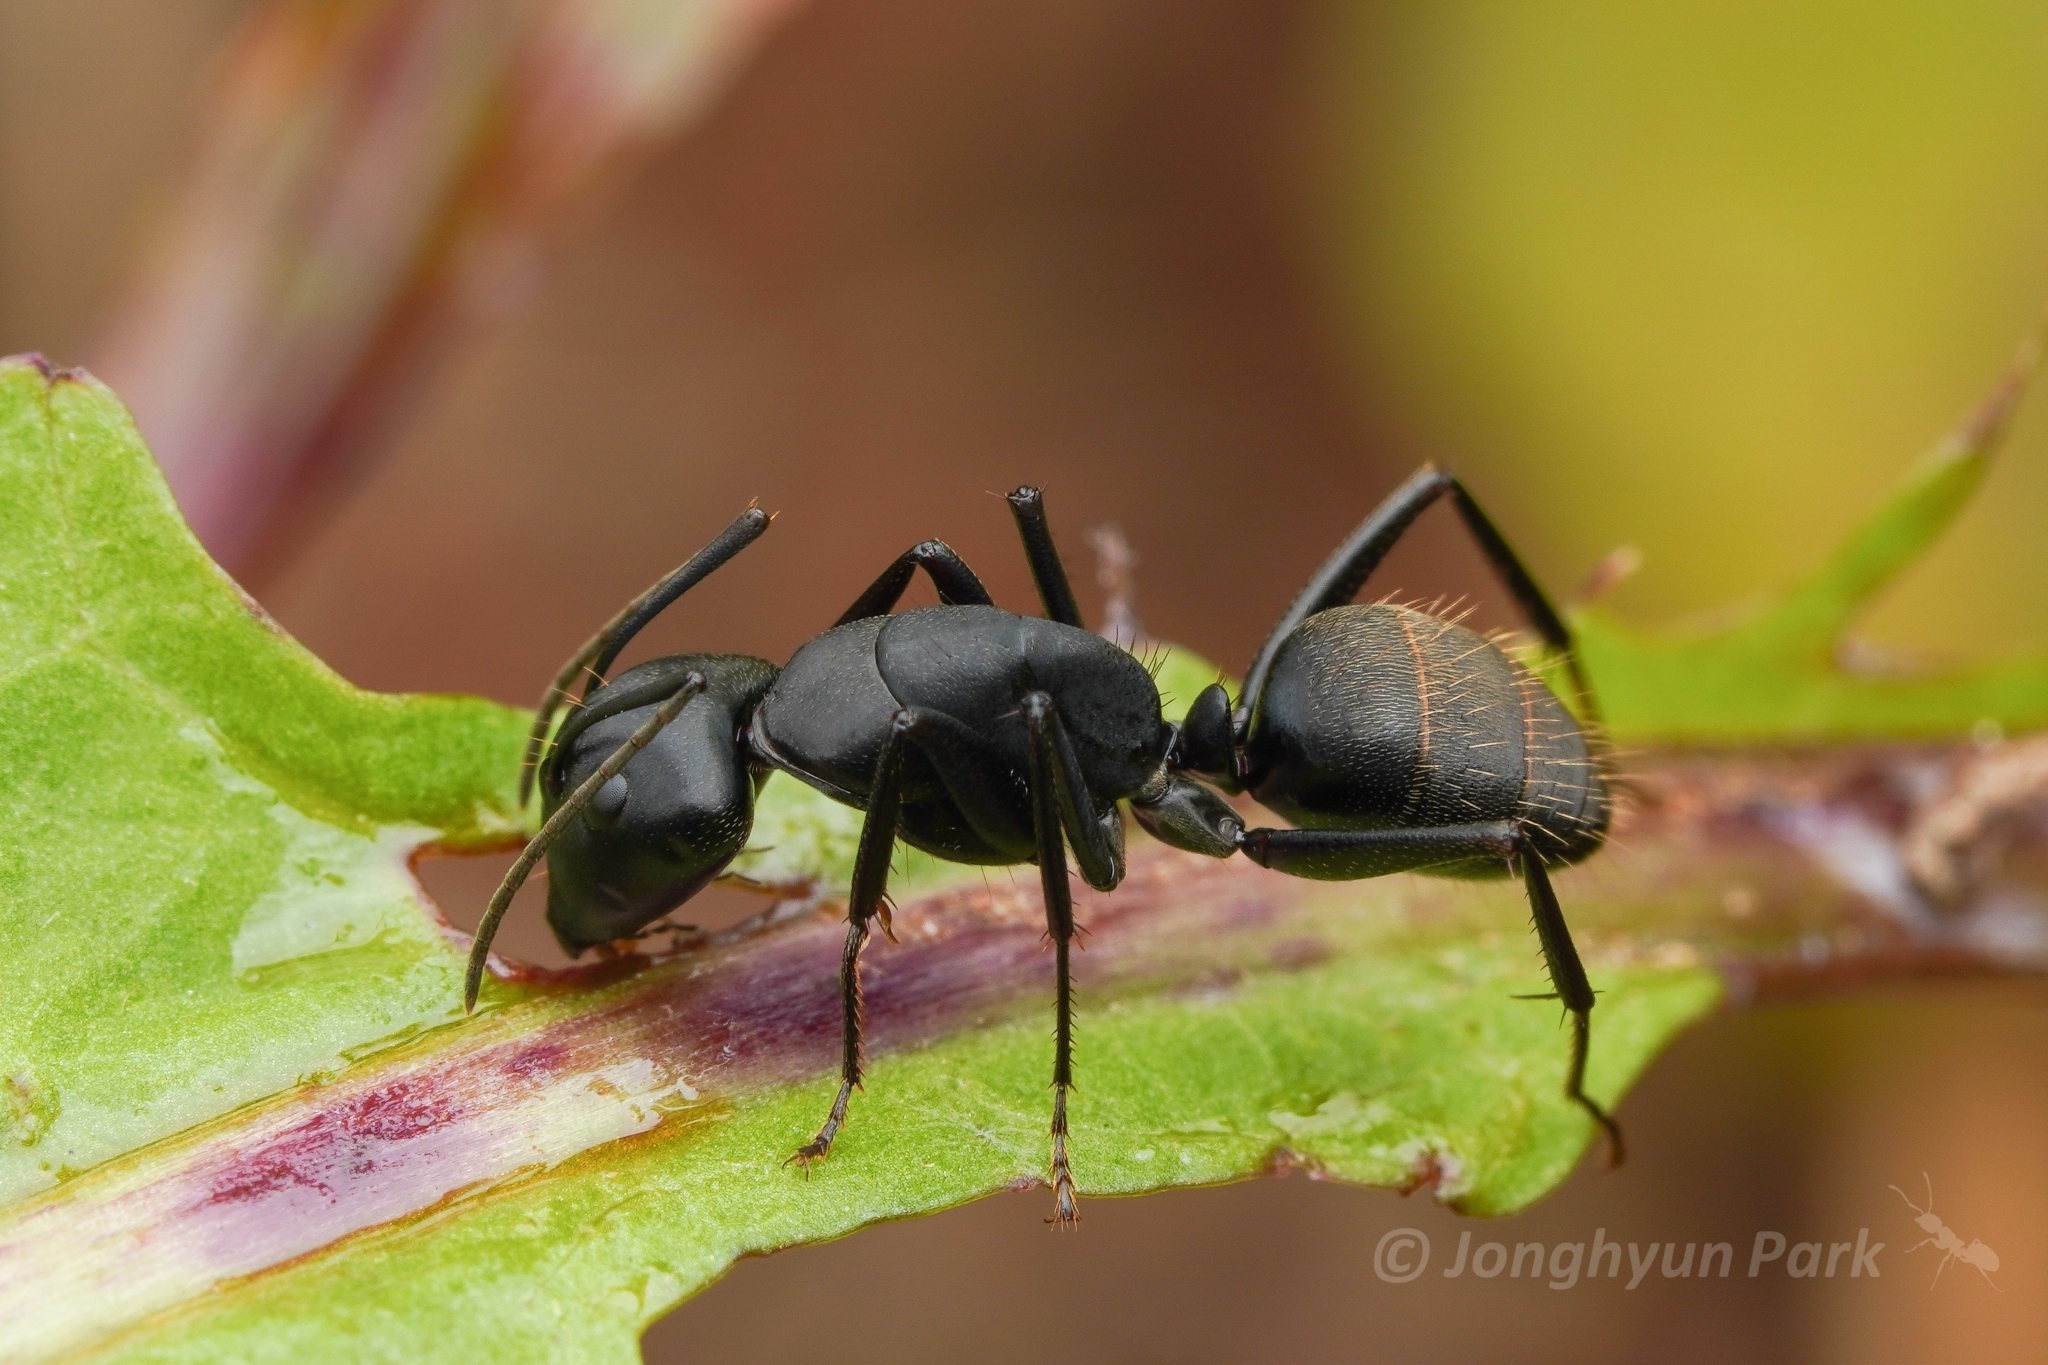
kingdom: Animalia
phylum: Arthropoda
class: Insecta
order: Hymenoptera
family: Formicidae
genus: Camponotus
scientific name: Camponotus japonicus
